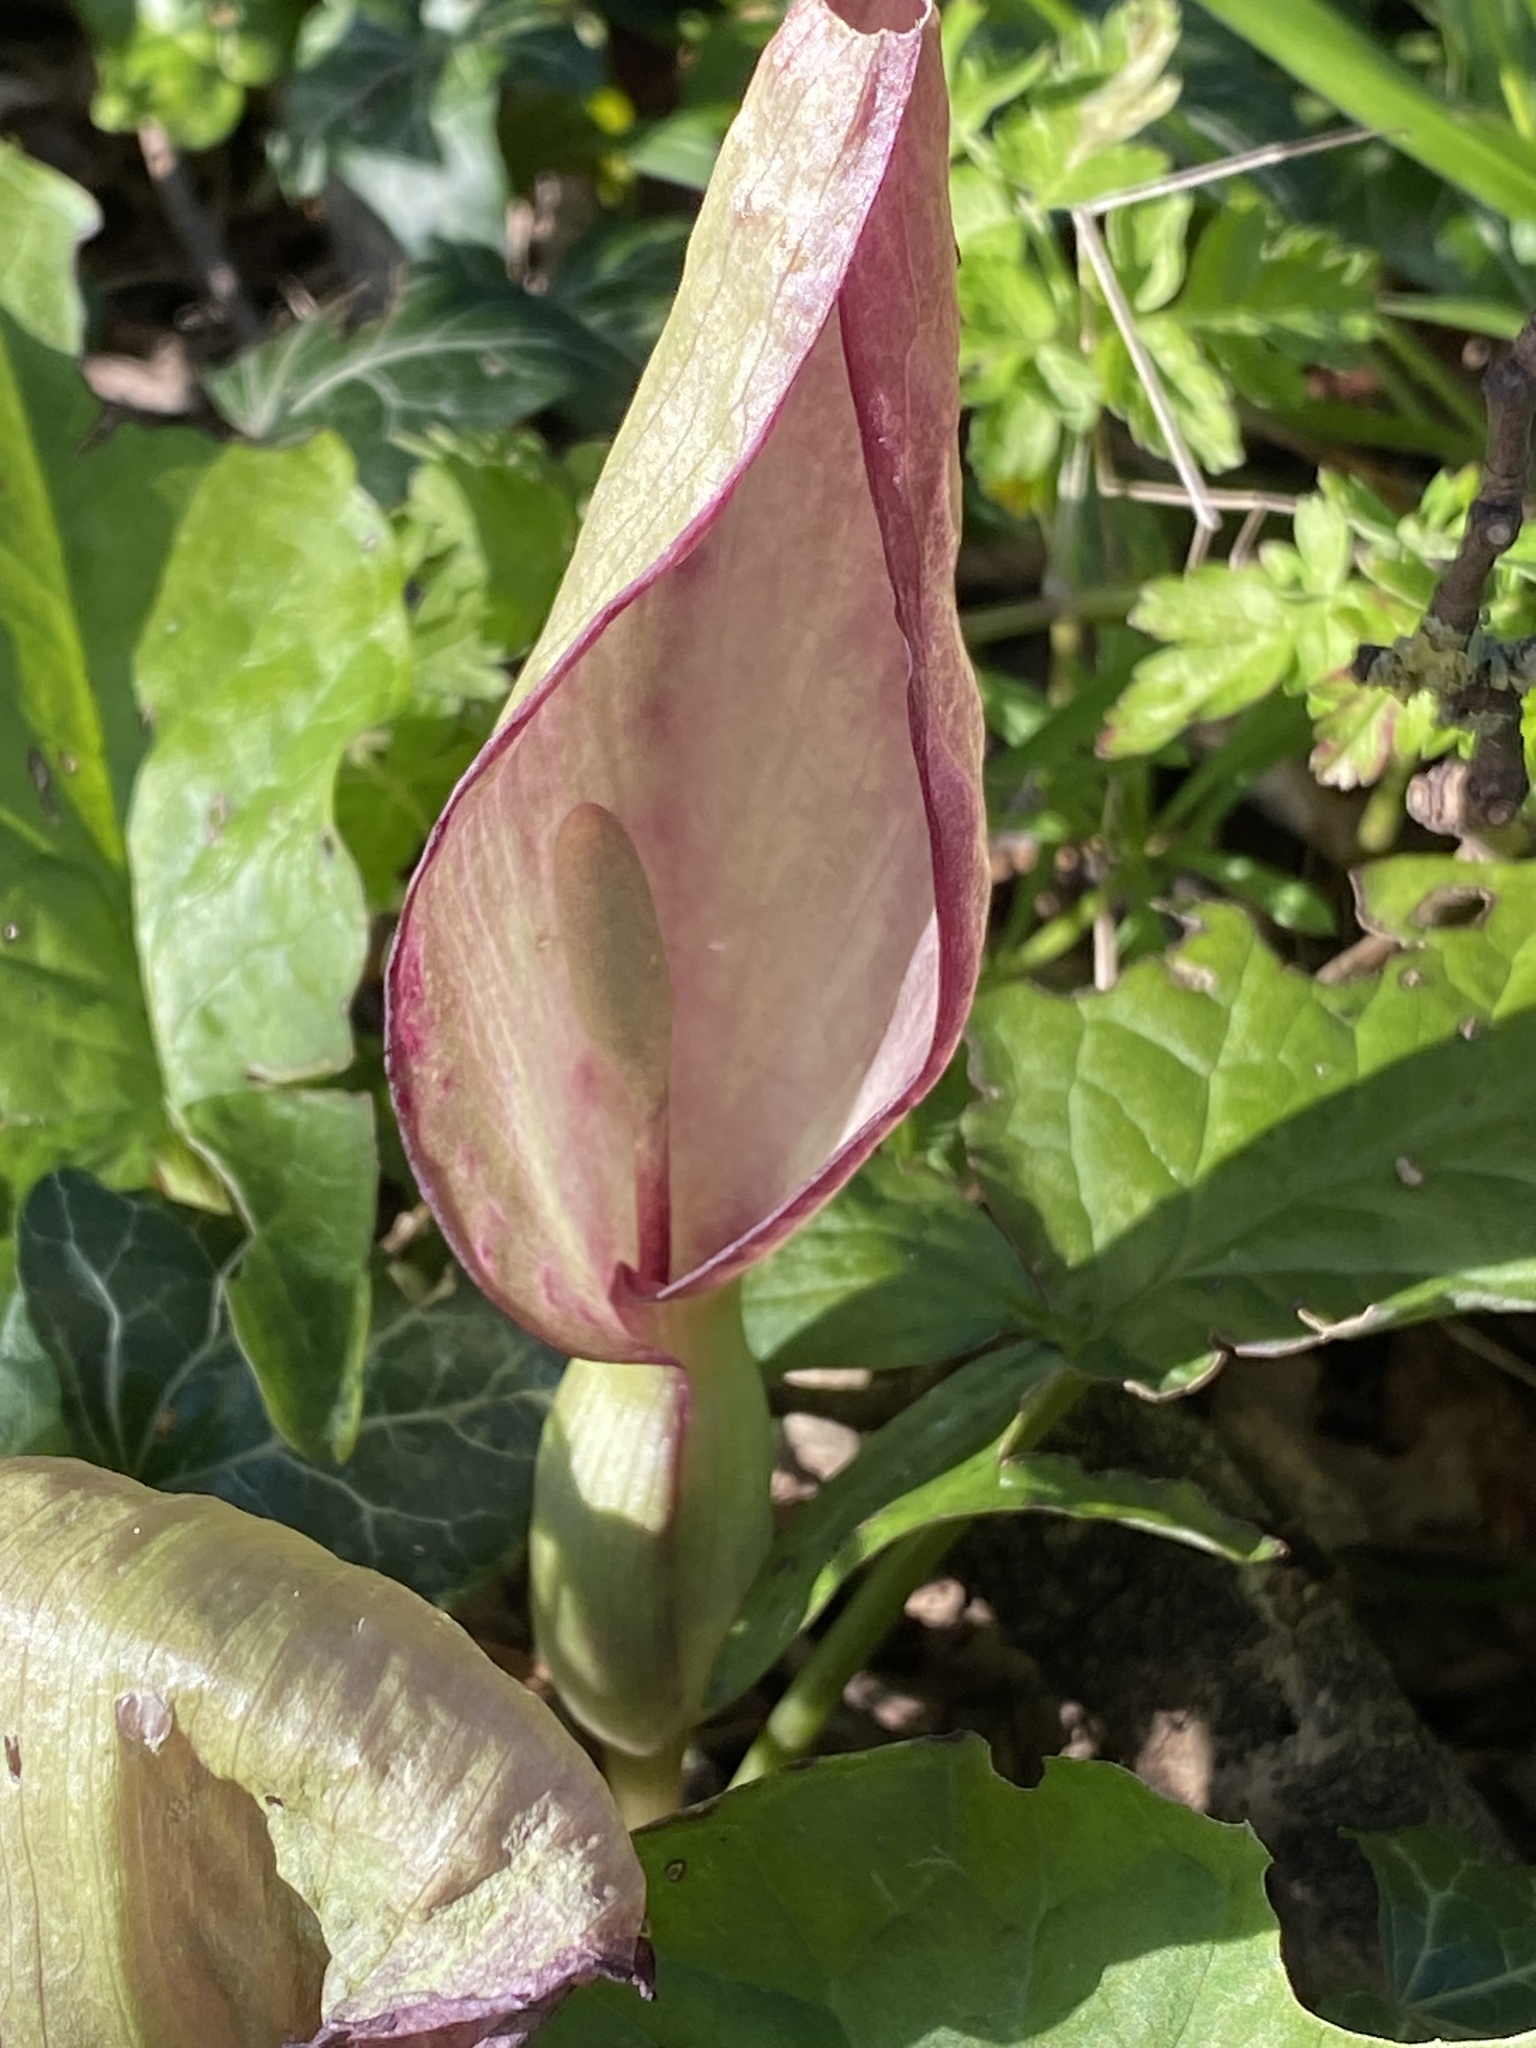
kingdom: Plantae
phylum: Tracheophyta
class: Liliopsida
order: Alismatales
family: Araceae
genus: Arum
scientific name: Arum maculatum
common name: Lords-and-ladies
